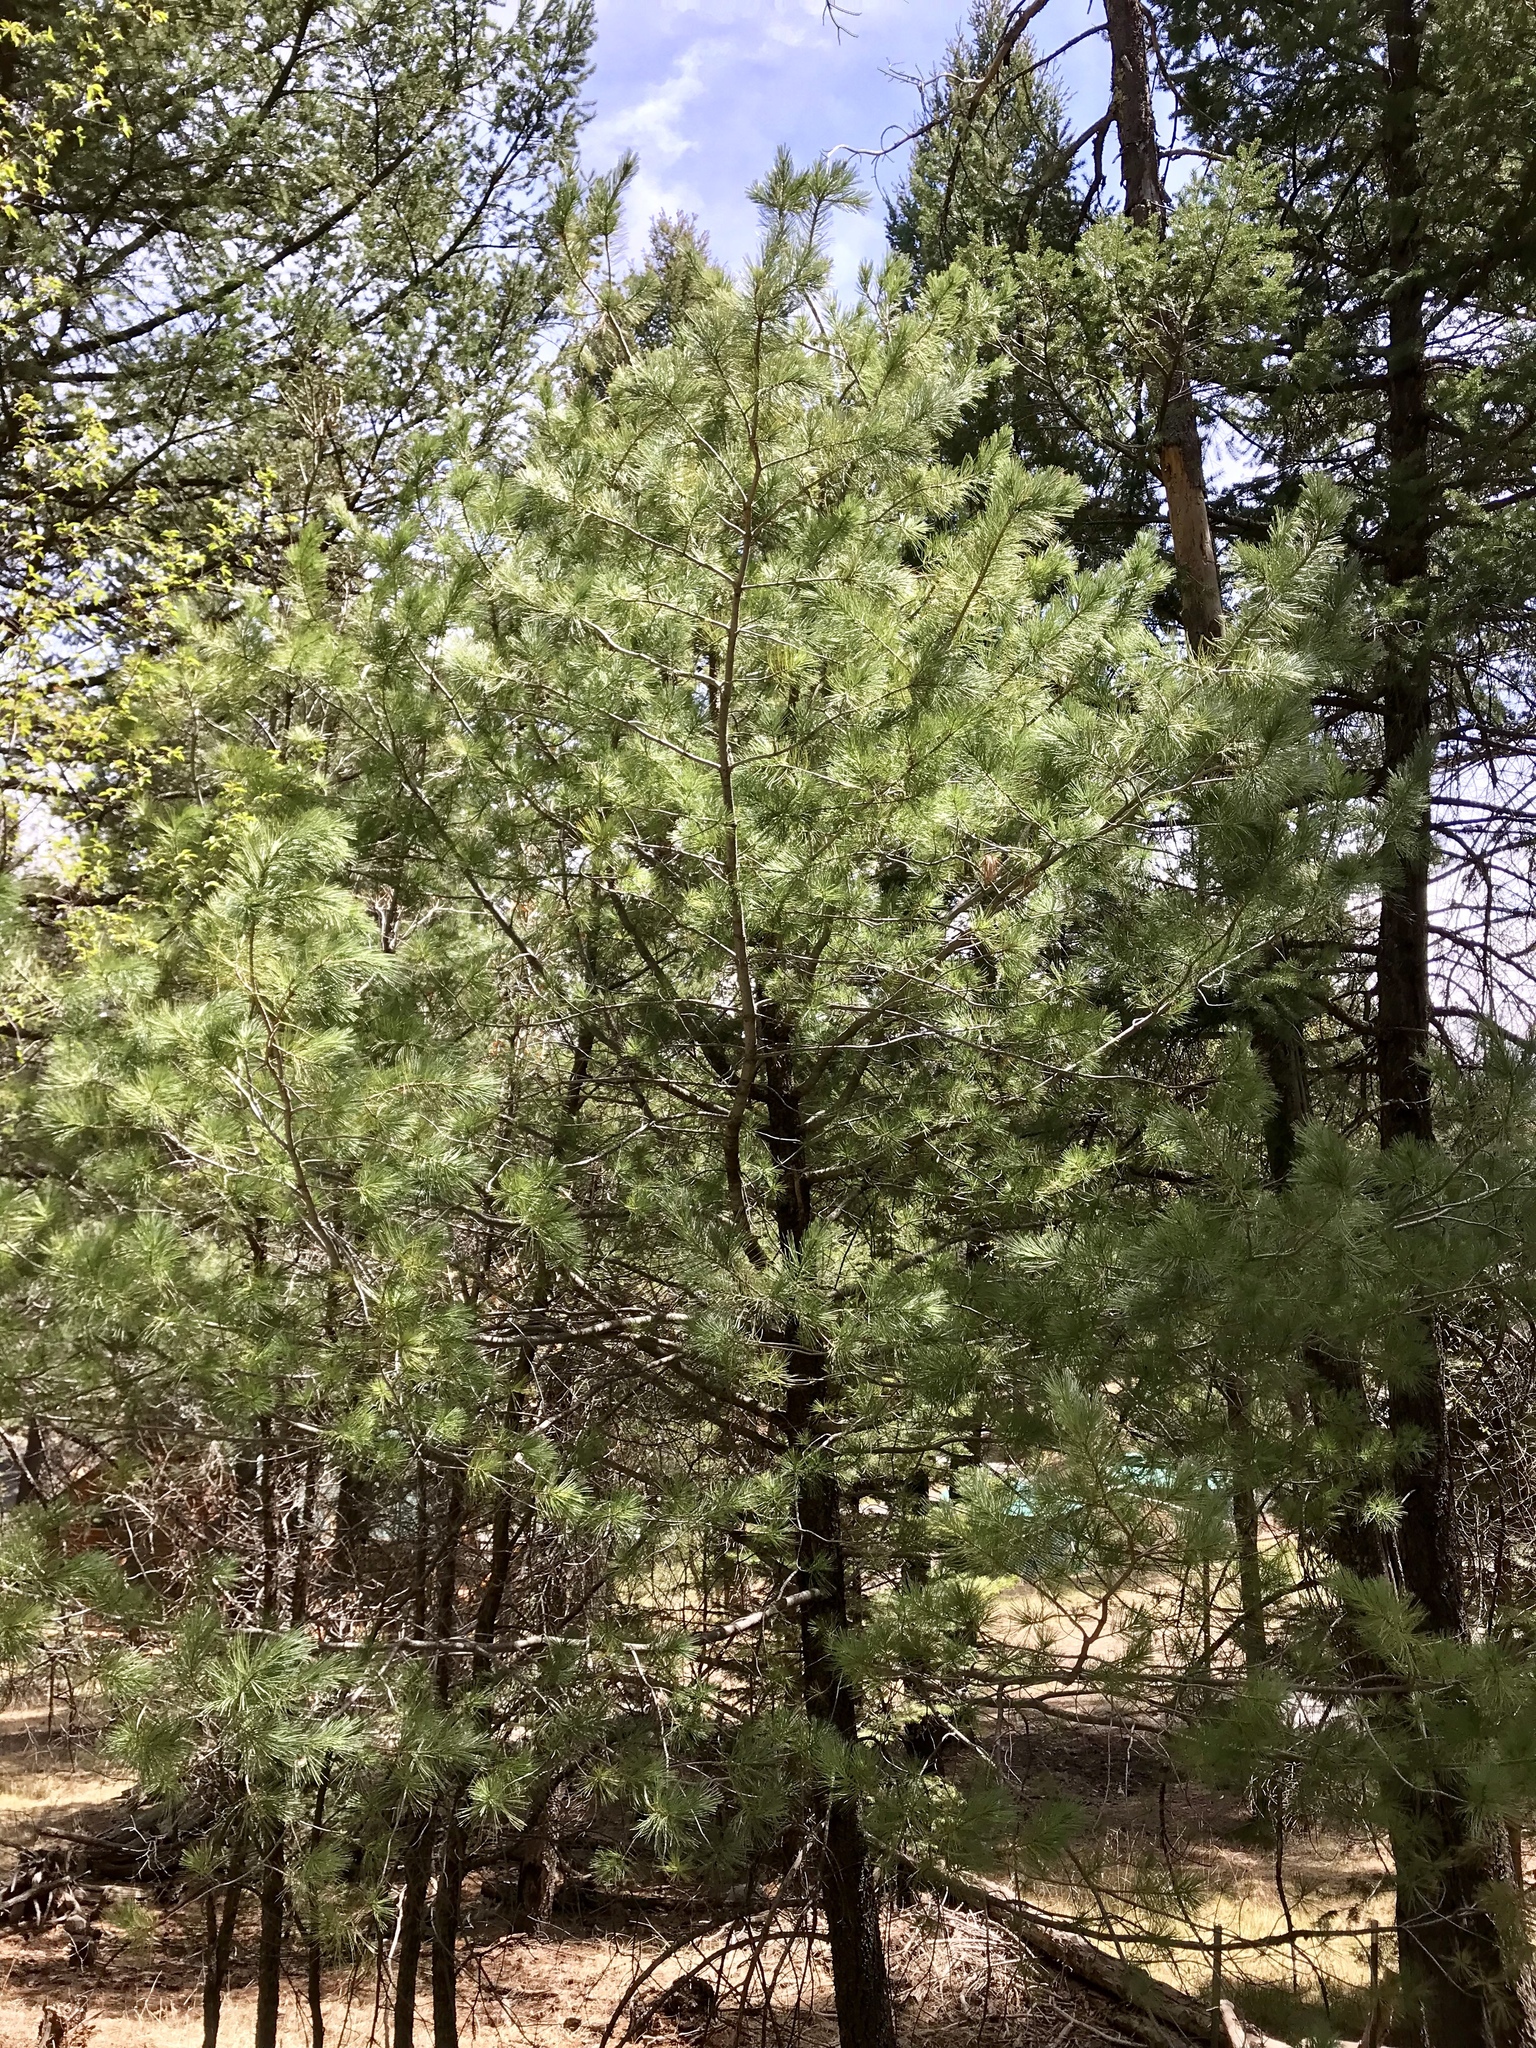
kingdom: Plantae
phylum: Tracheophyta
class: Pinopsida
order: Pinales
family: Pinaceae
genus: Pinus
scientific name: Pinus strobiformis
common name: Southwestern white pine
